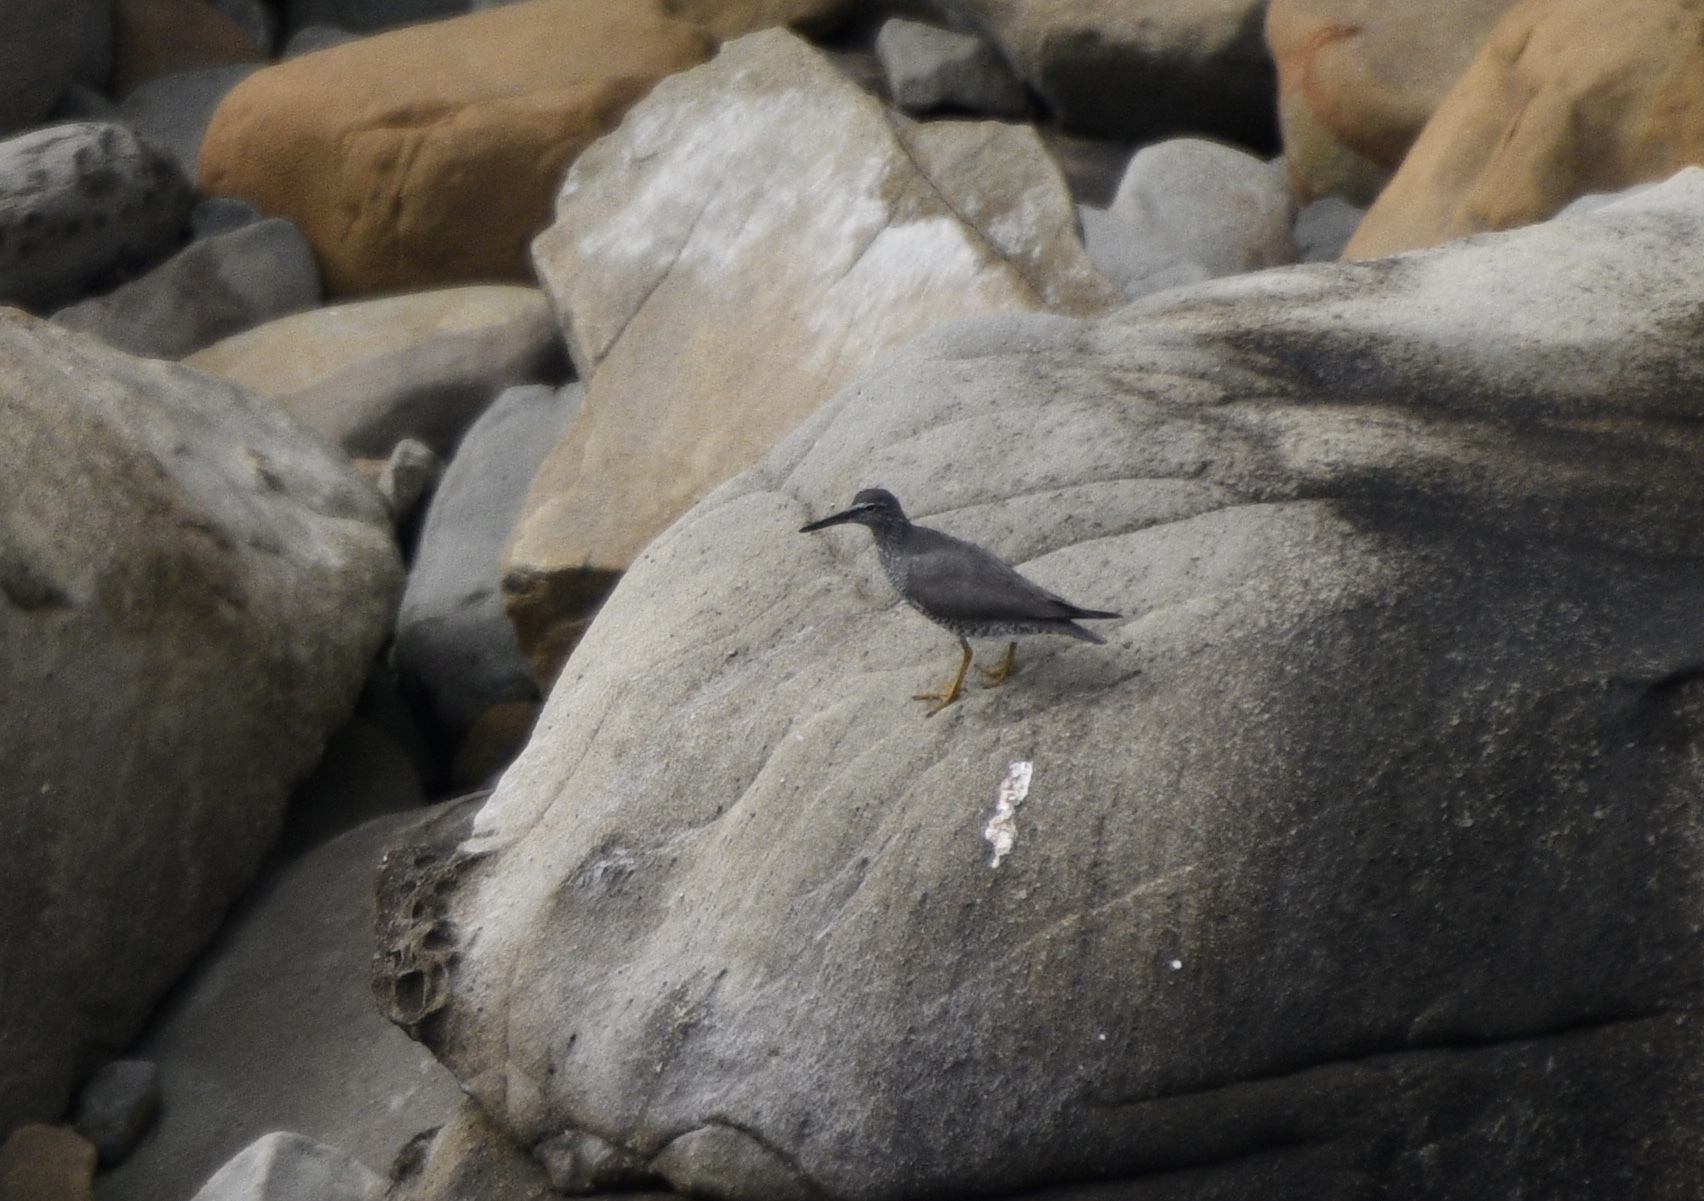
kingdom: Animalia
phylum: Chordata
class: Aves
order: Charadriiformes
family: Scolopacidae
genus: Tringa
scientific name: Tringa incana
